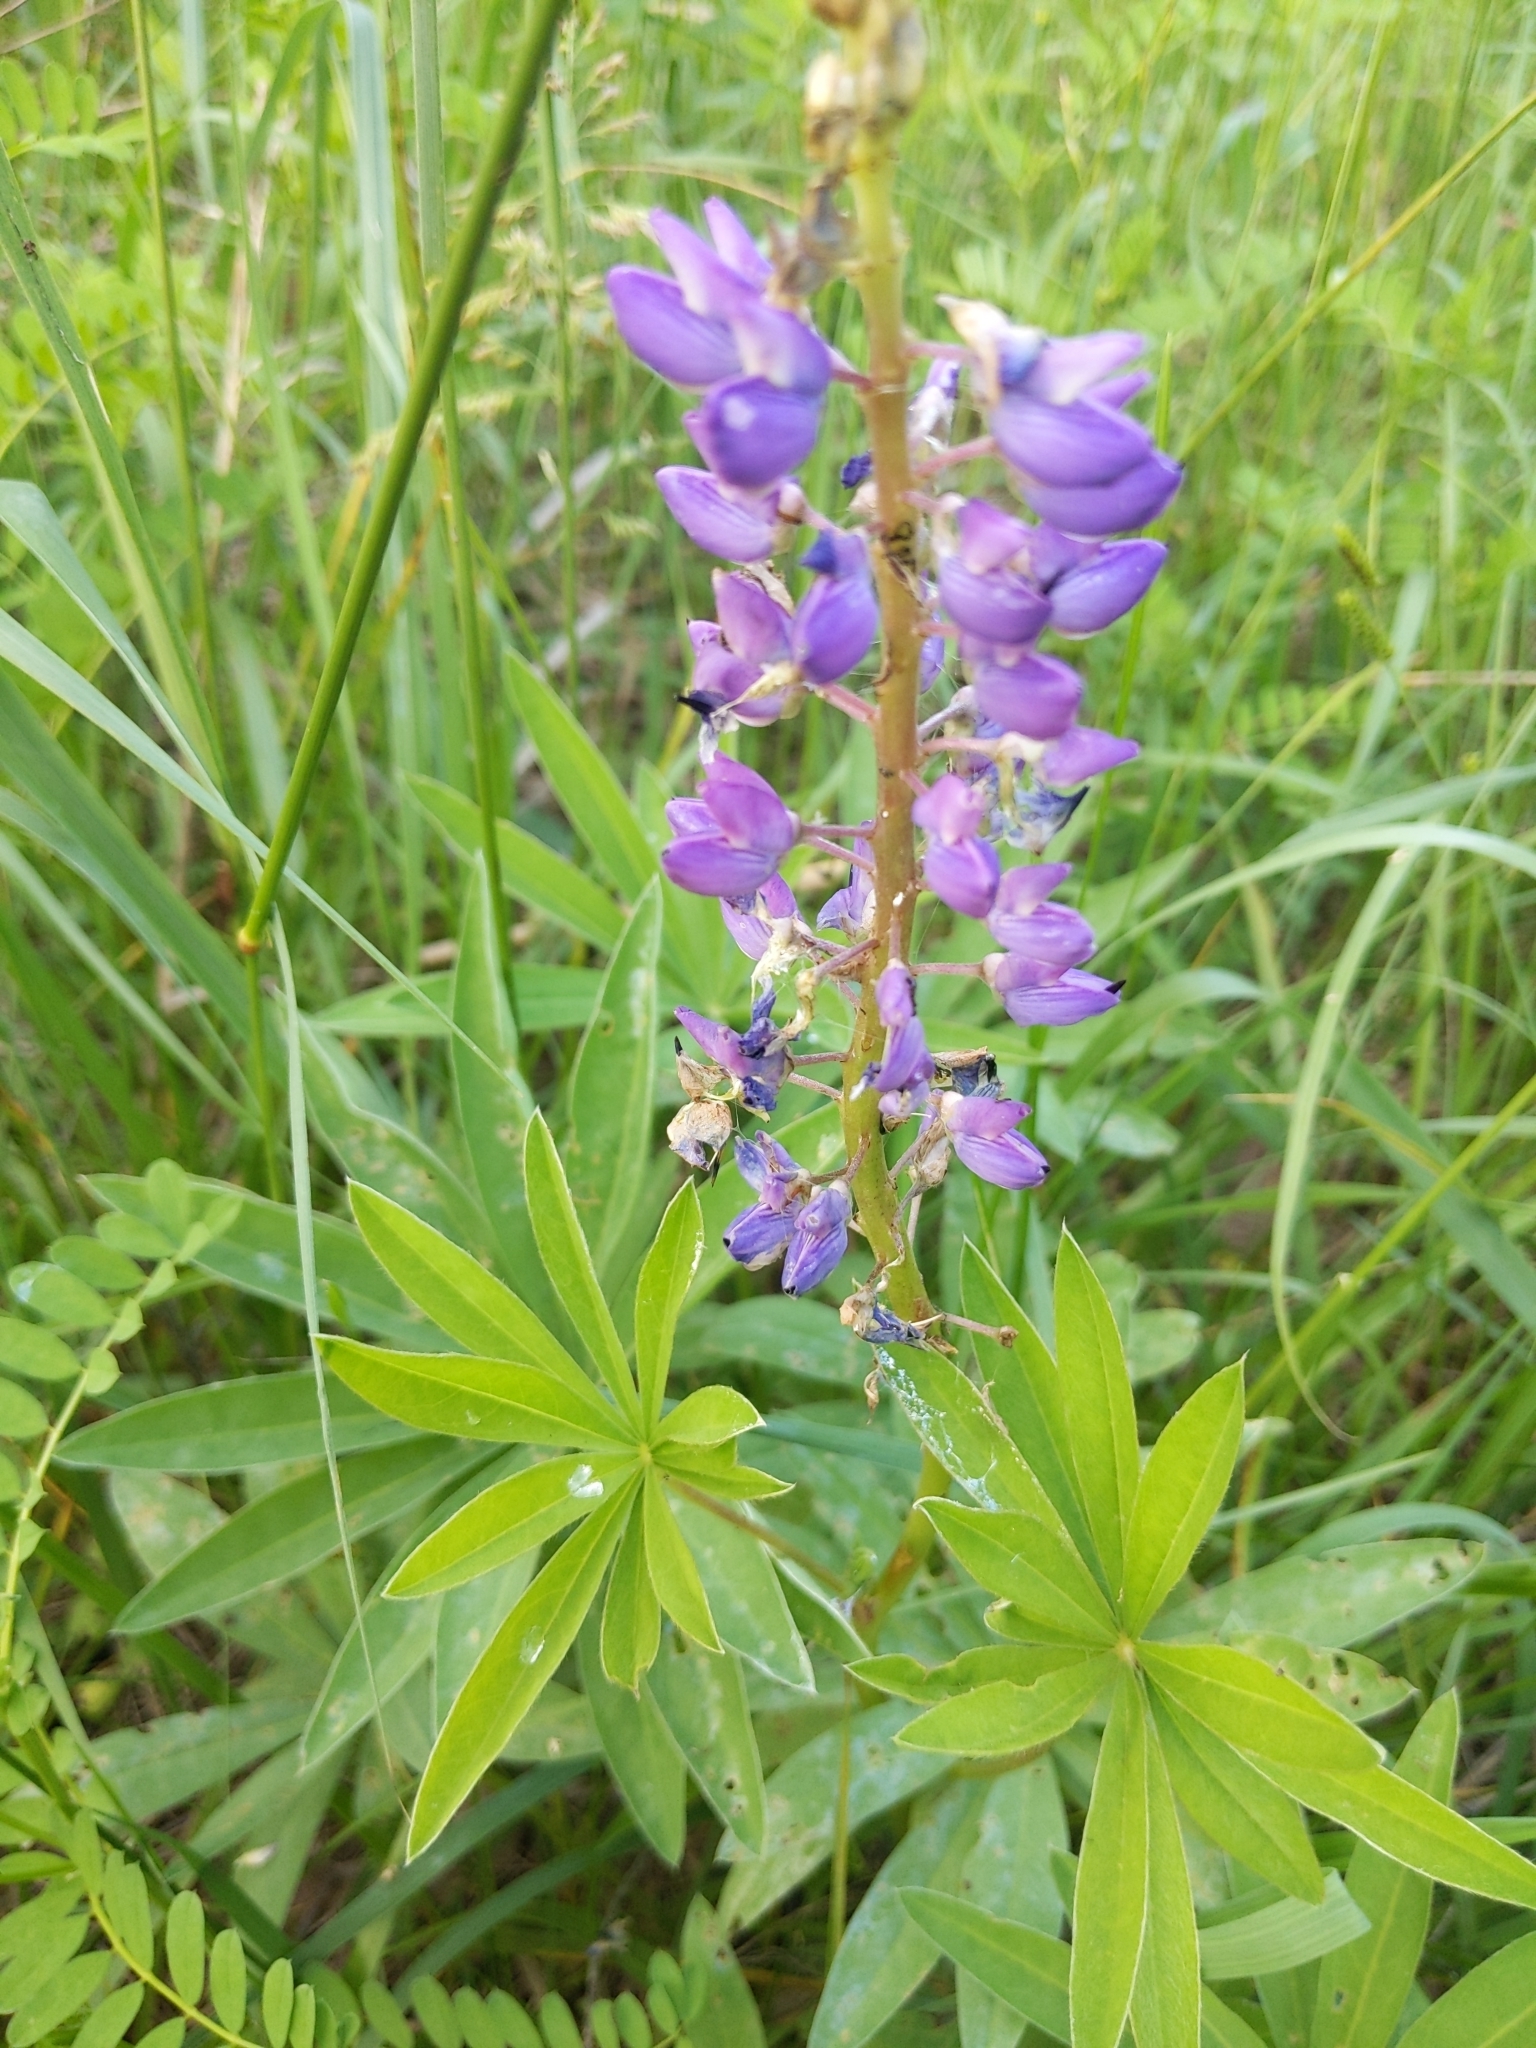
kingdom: Plantae
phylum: Tracheophyta
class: Magnoliopsida
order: Fabales
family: Fabaceae
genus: Lupinus
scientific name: Lupinus polyphyllus
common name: Garden lupin
